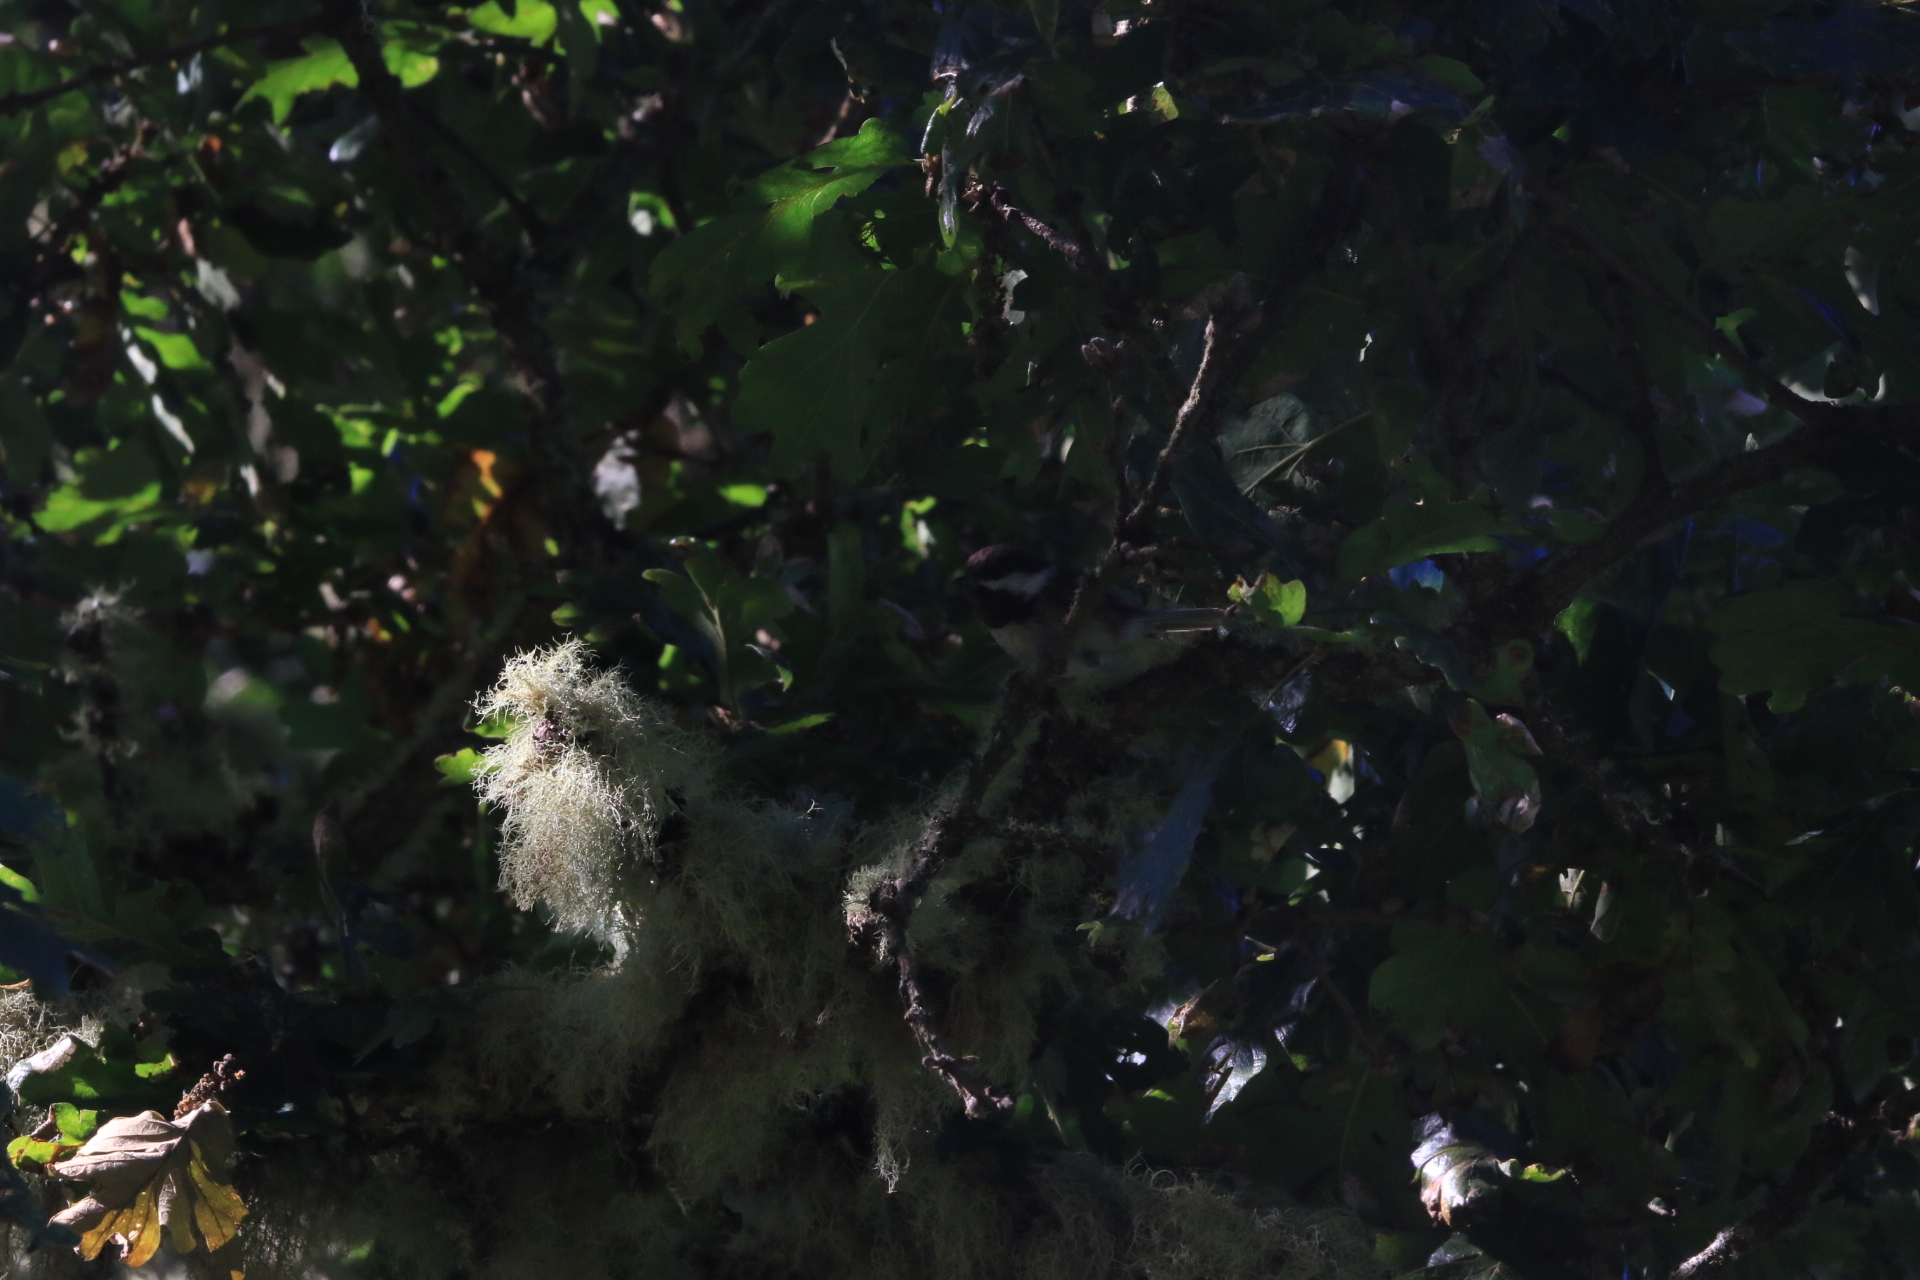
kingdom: Animalia
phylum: Chordata
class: Aves
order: Passeriformes
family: Paridae
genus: Poecile
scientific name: Poecile atricapillus
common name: Black-capped chickadee
